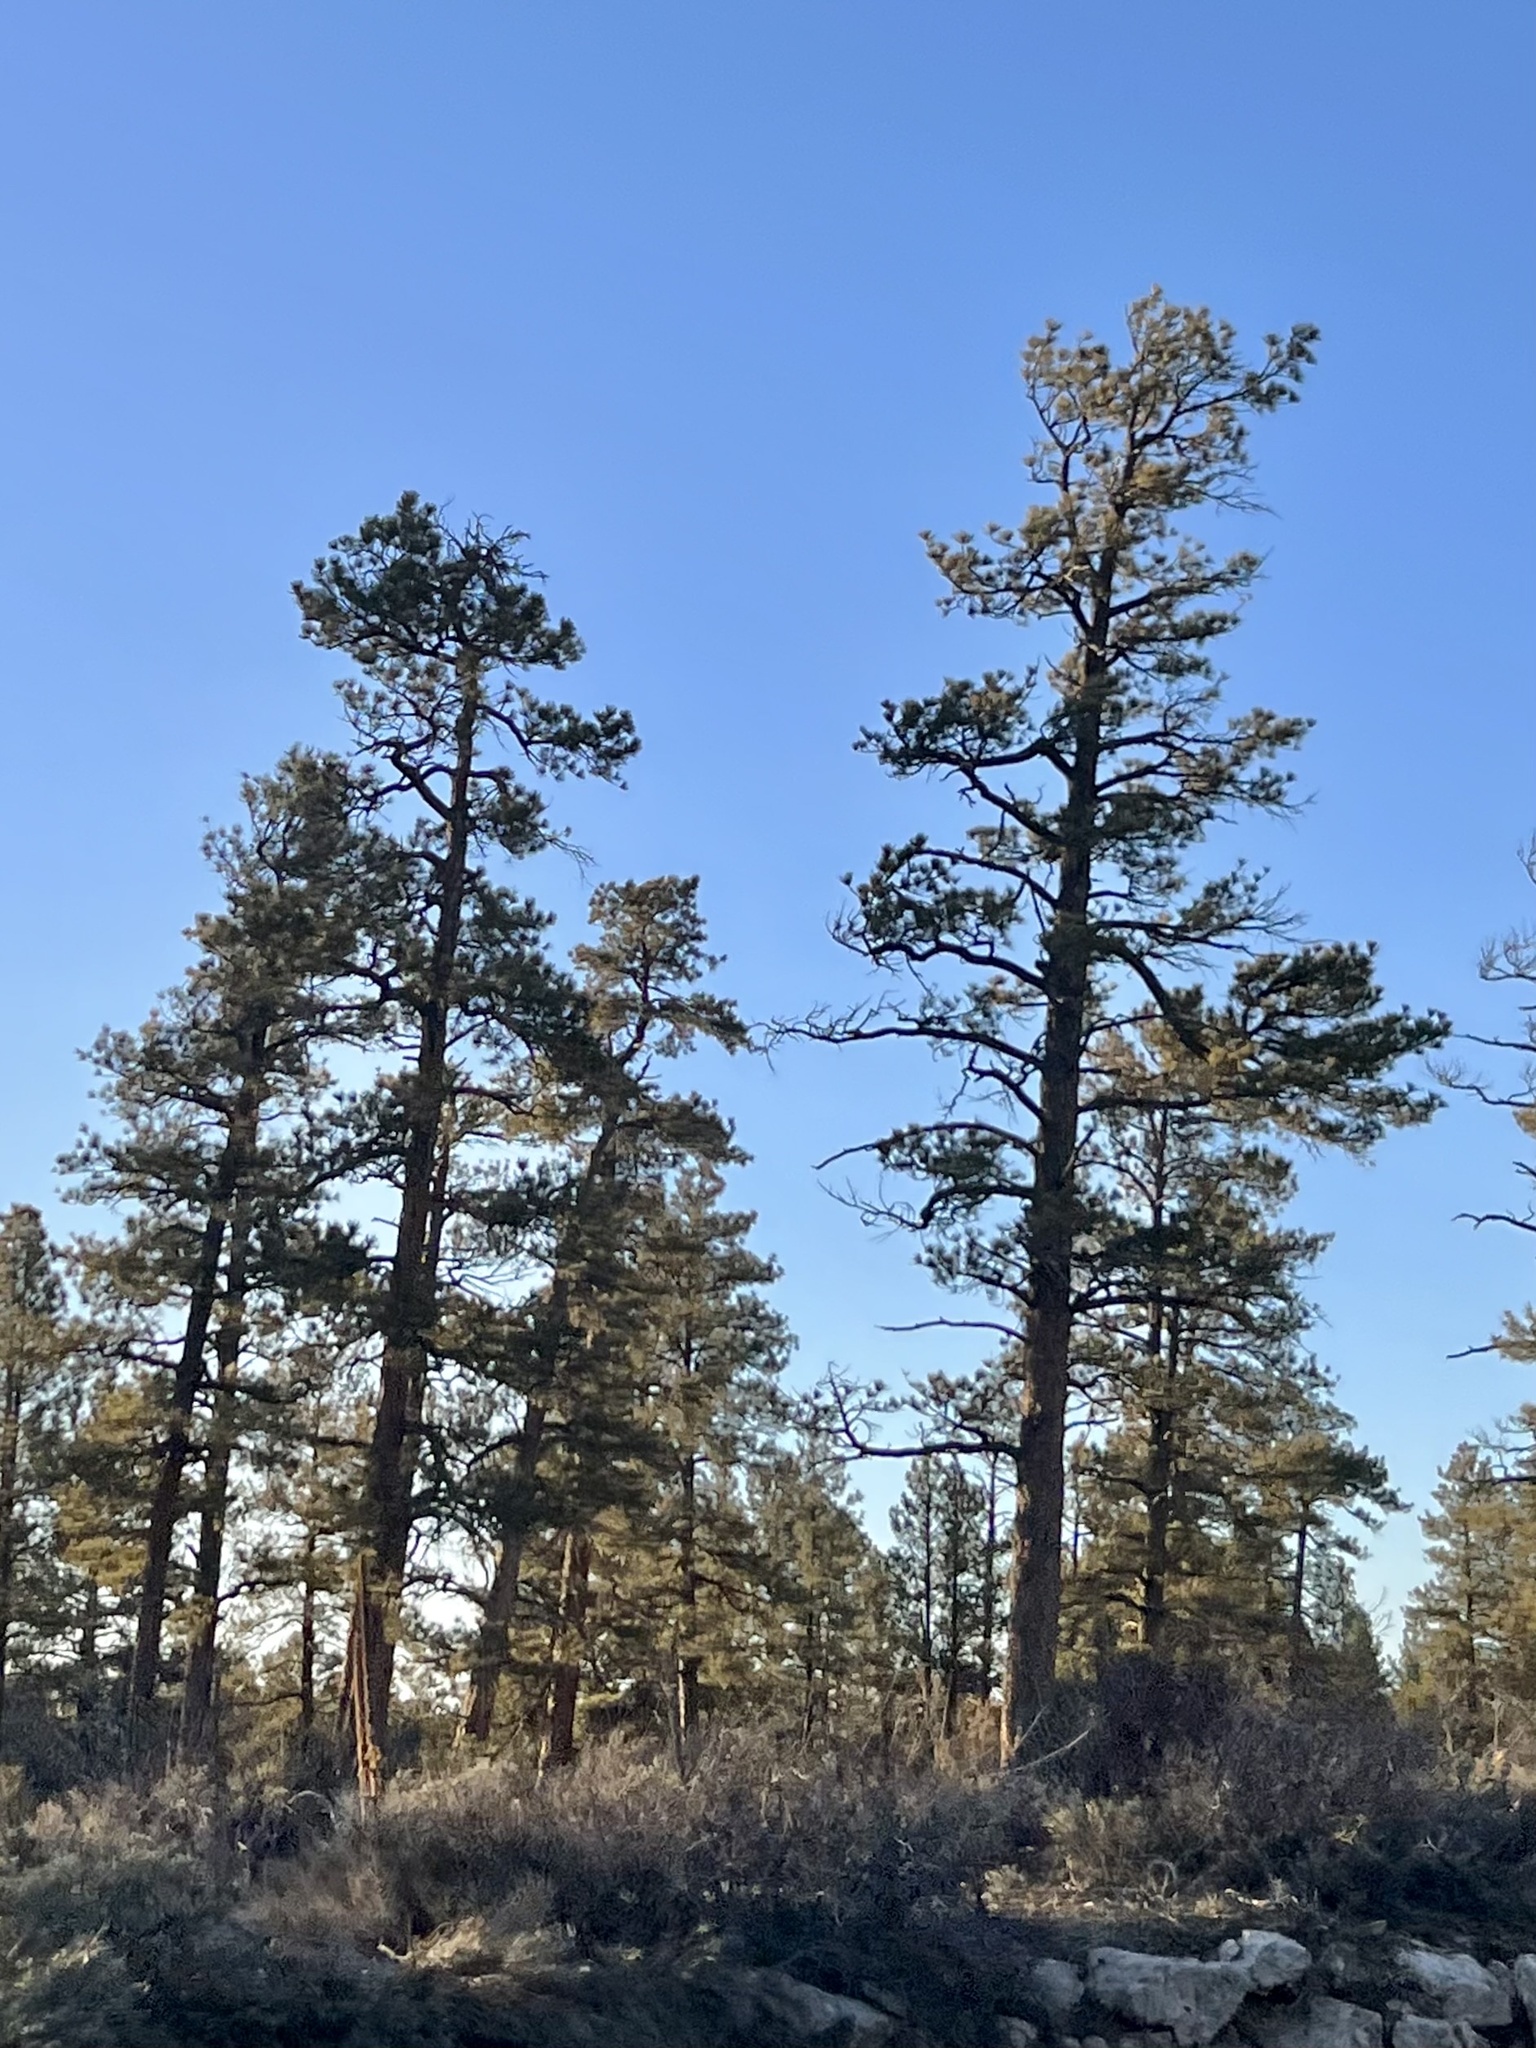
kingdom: Plantae
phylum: Tracheophyta
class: Pinopsida
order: Pinales
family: Pinaceae
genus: Pinus
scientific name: Pinus ponderosa
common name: Western yellow-pine
